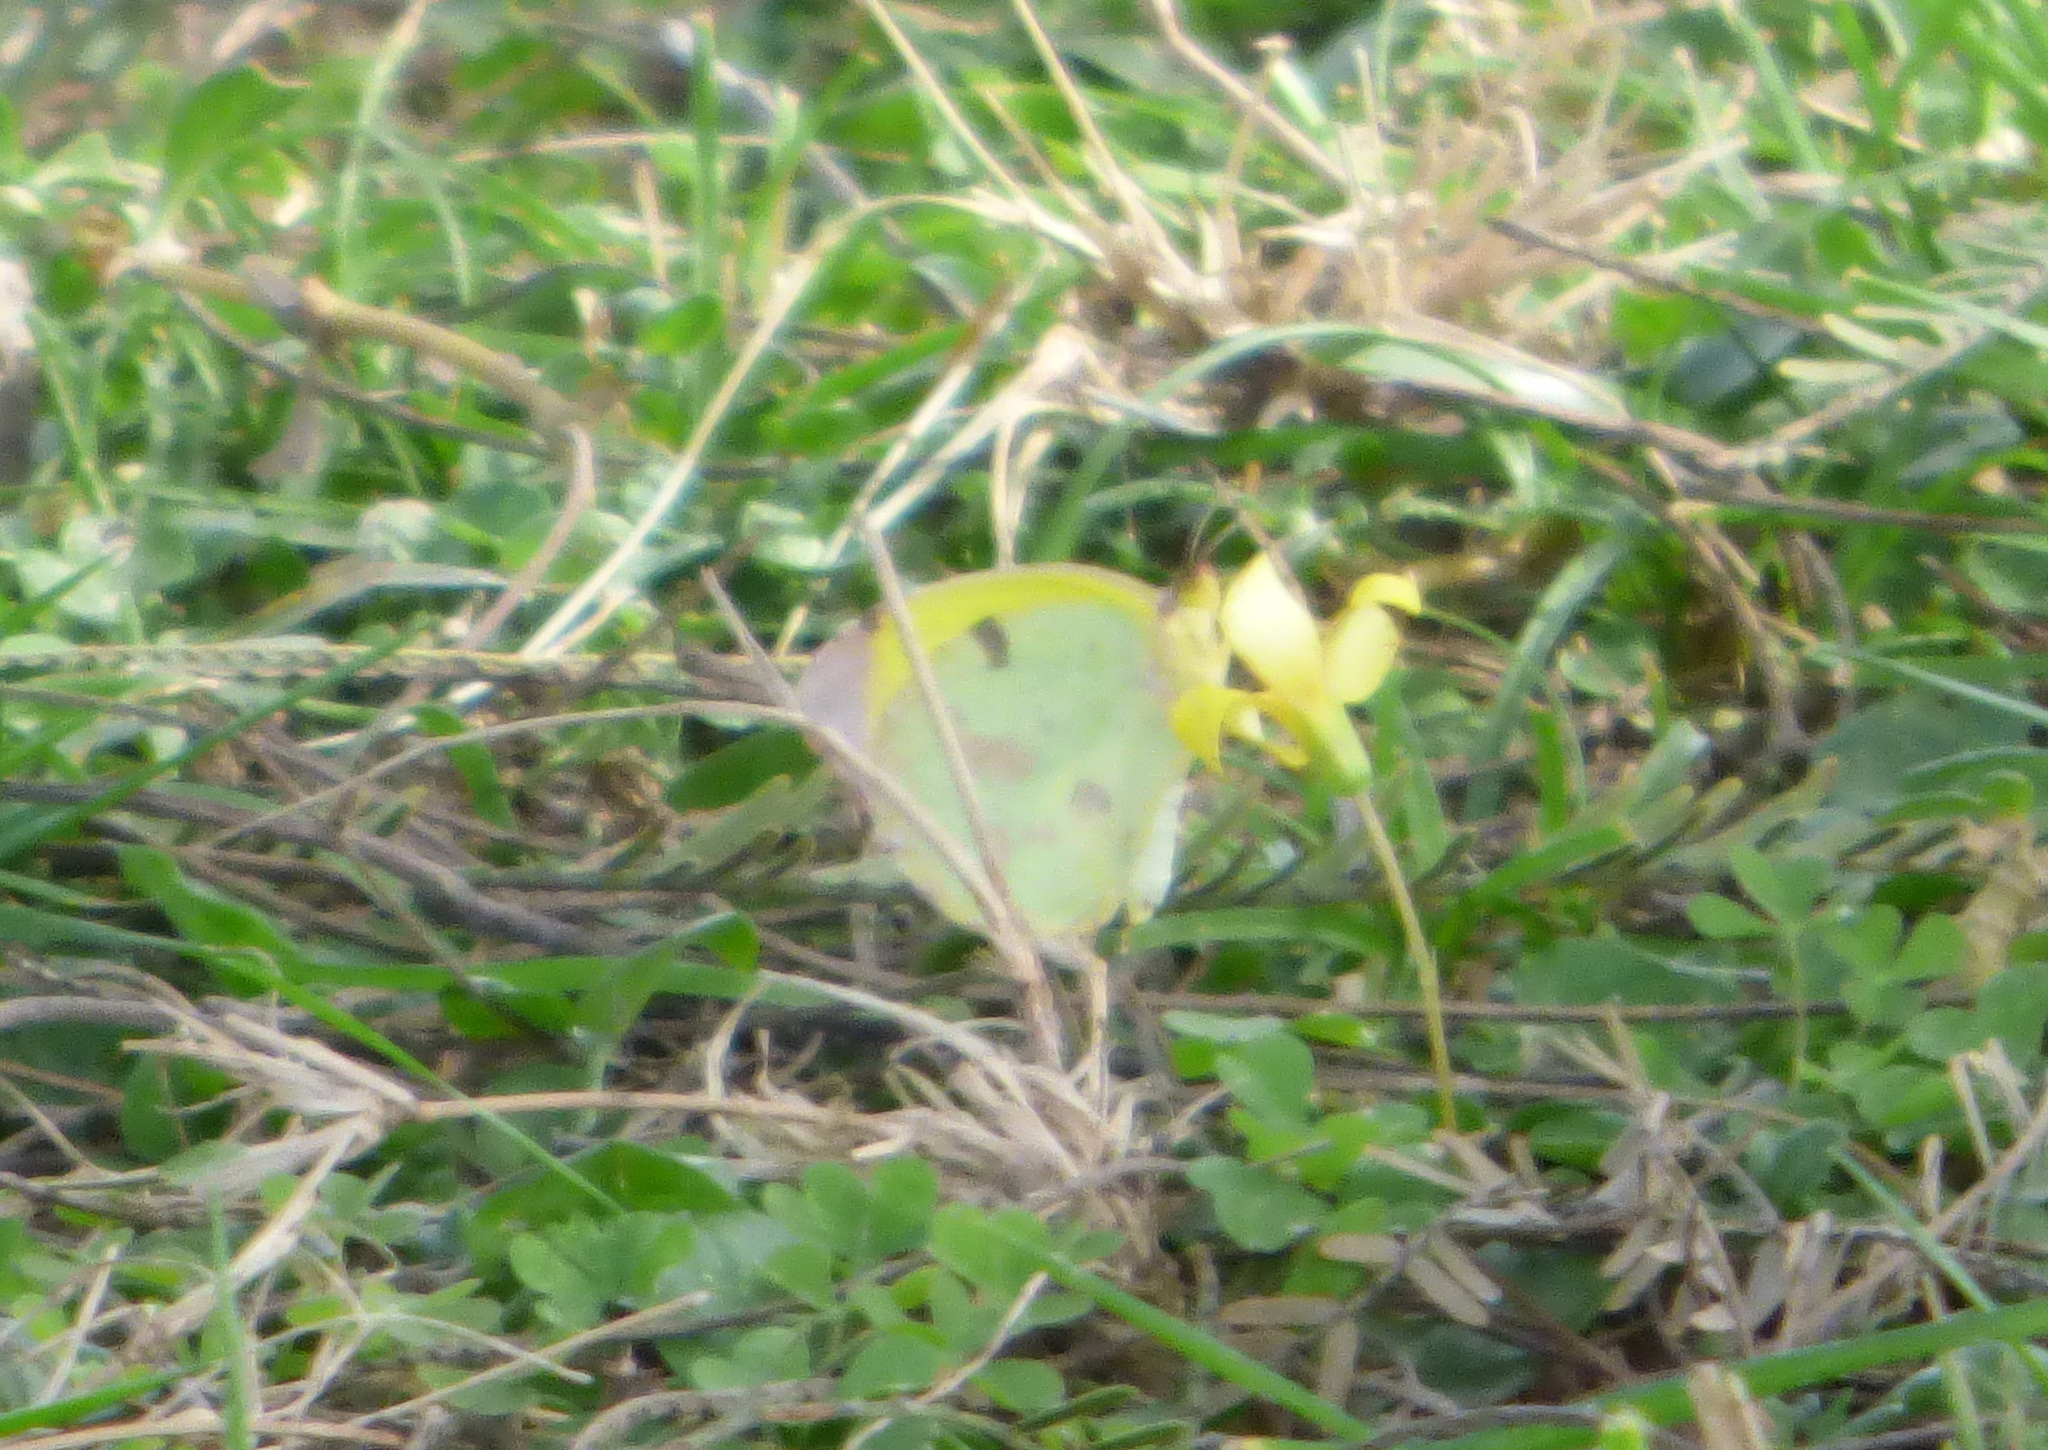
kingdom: Animalia
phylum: Arthropoda
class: Insecta
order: Lepidoptera
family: Pieridae
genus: Teriocolias
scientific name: Teriocolias
